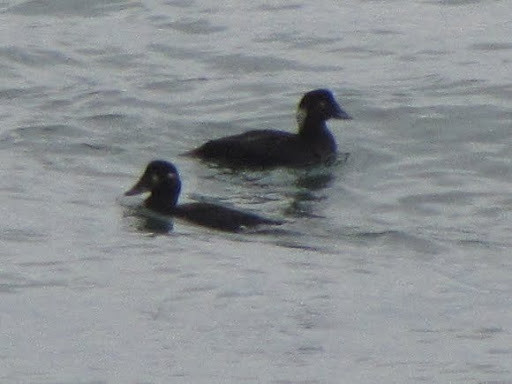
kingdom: Animalia
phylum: Chordata
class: Aves
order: Anseriformes
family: Anatidae
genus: Melanitta
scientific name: Melanitta perspicillata
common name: Surf scoter
